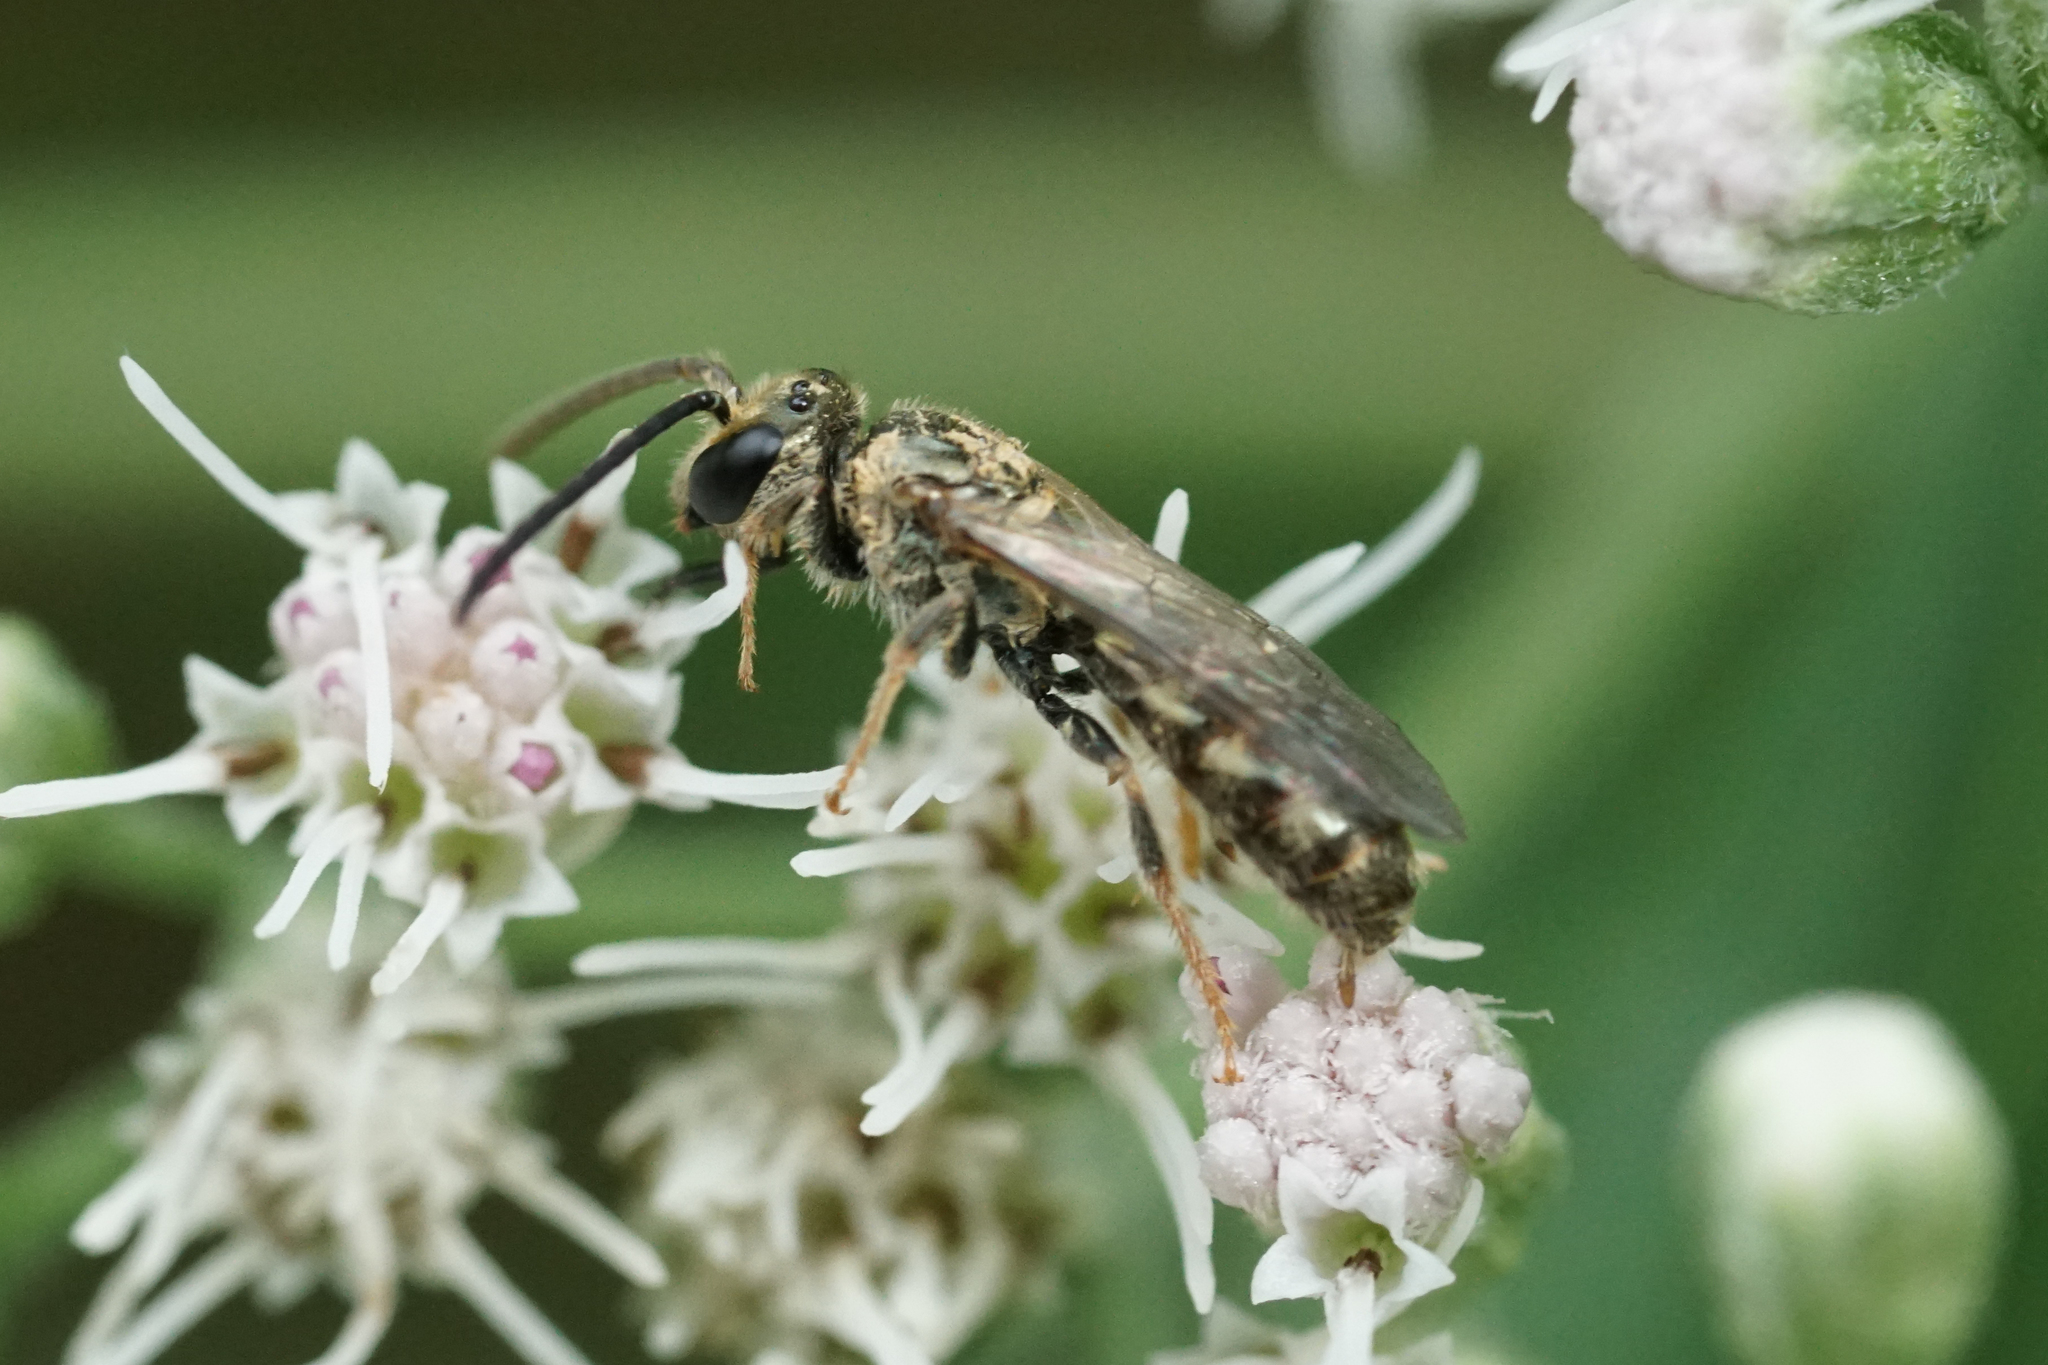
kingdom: Animalia
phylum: Arthropoda
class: Insecta
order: Hymenoptera
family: Halictidae
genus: Dialictus
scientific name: Dialictus
